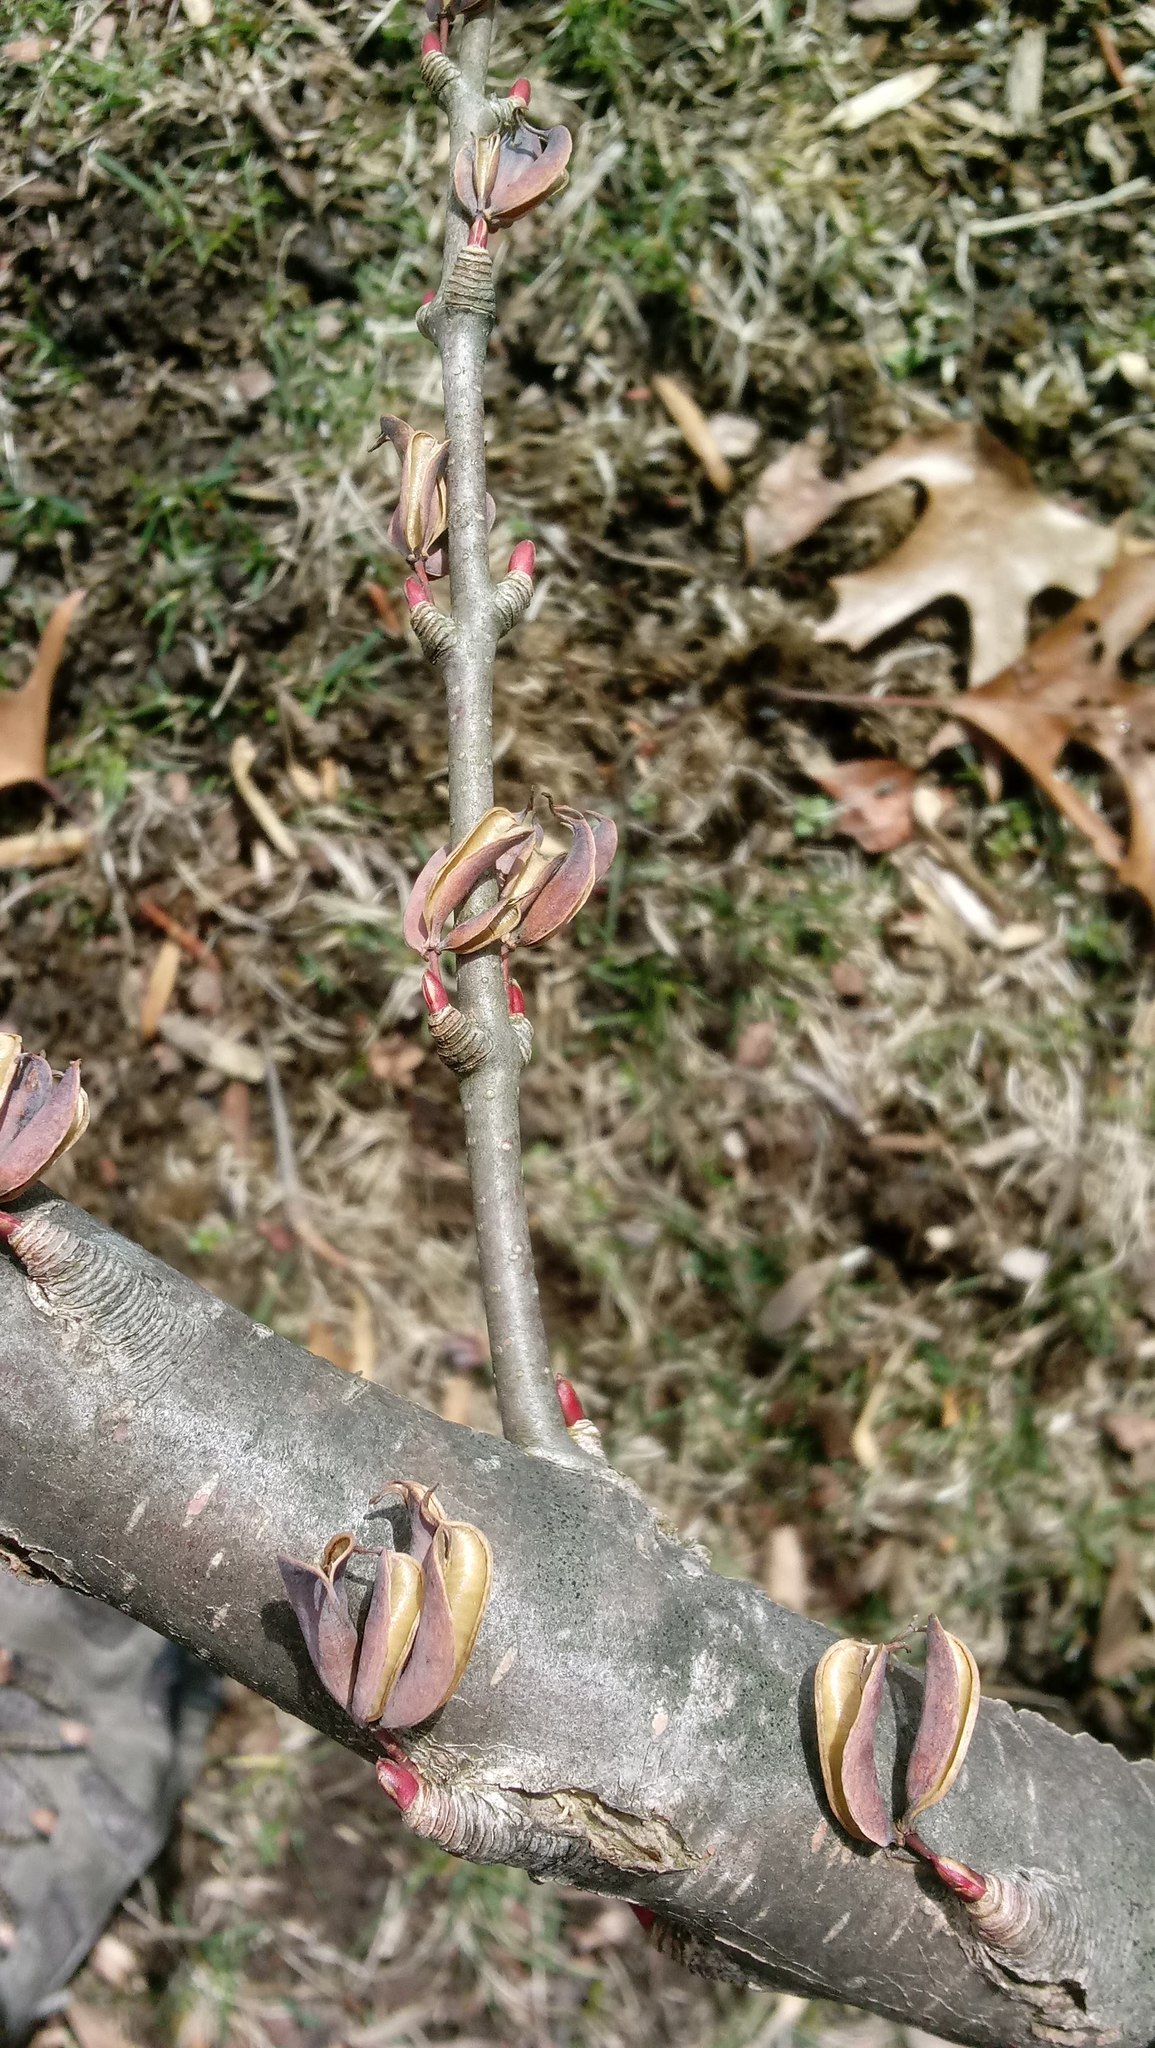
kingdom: Plantae
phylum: Tracheophyta
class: Magnoliopsida
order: Saxifragales
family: Cercidiphyllaceae
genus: Cercidiphyllum
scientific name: Cercidiphyllum japonicum
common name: Katsura tree
